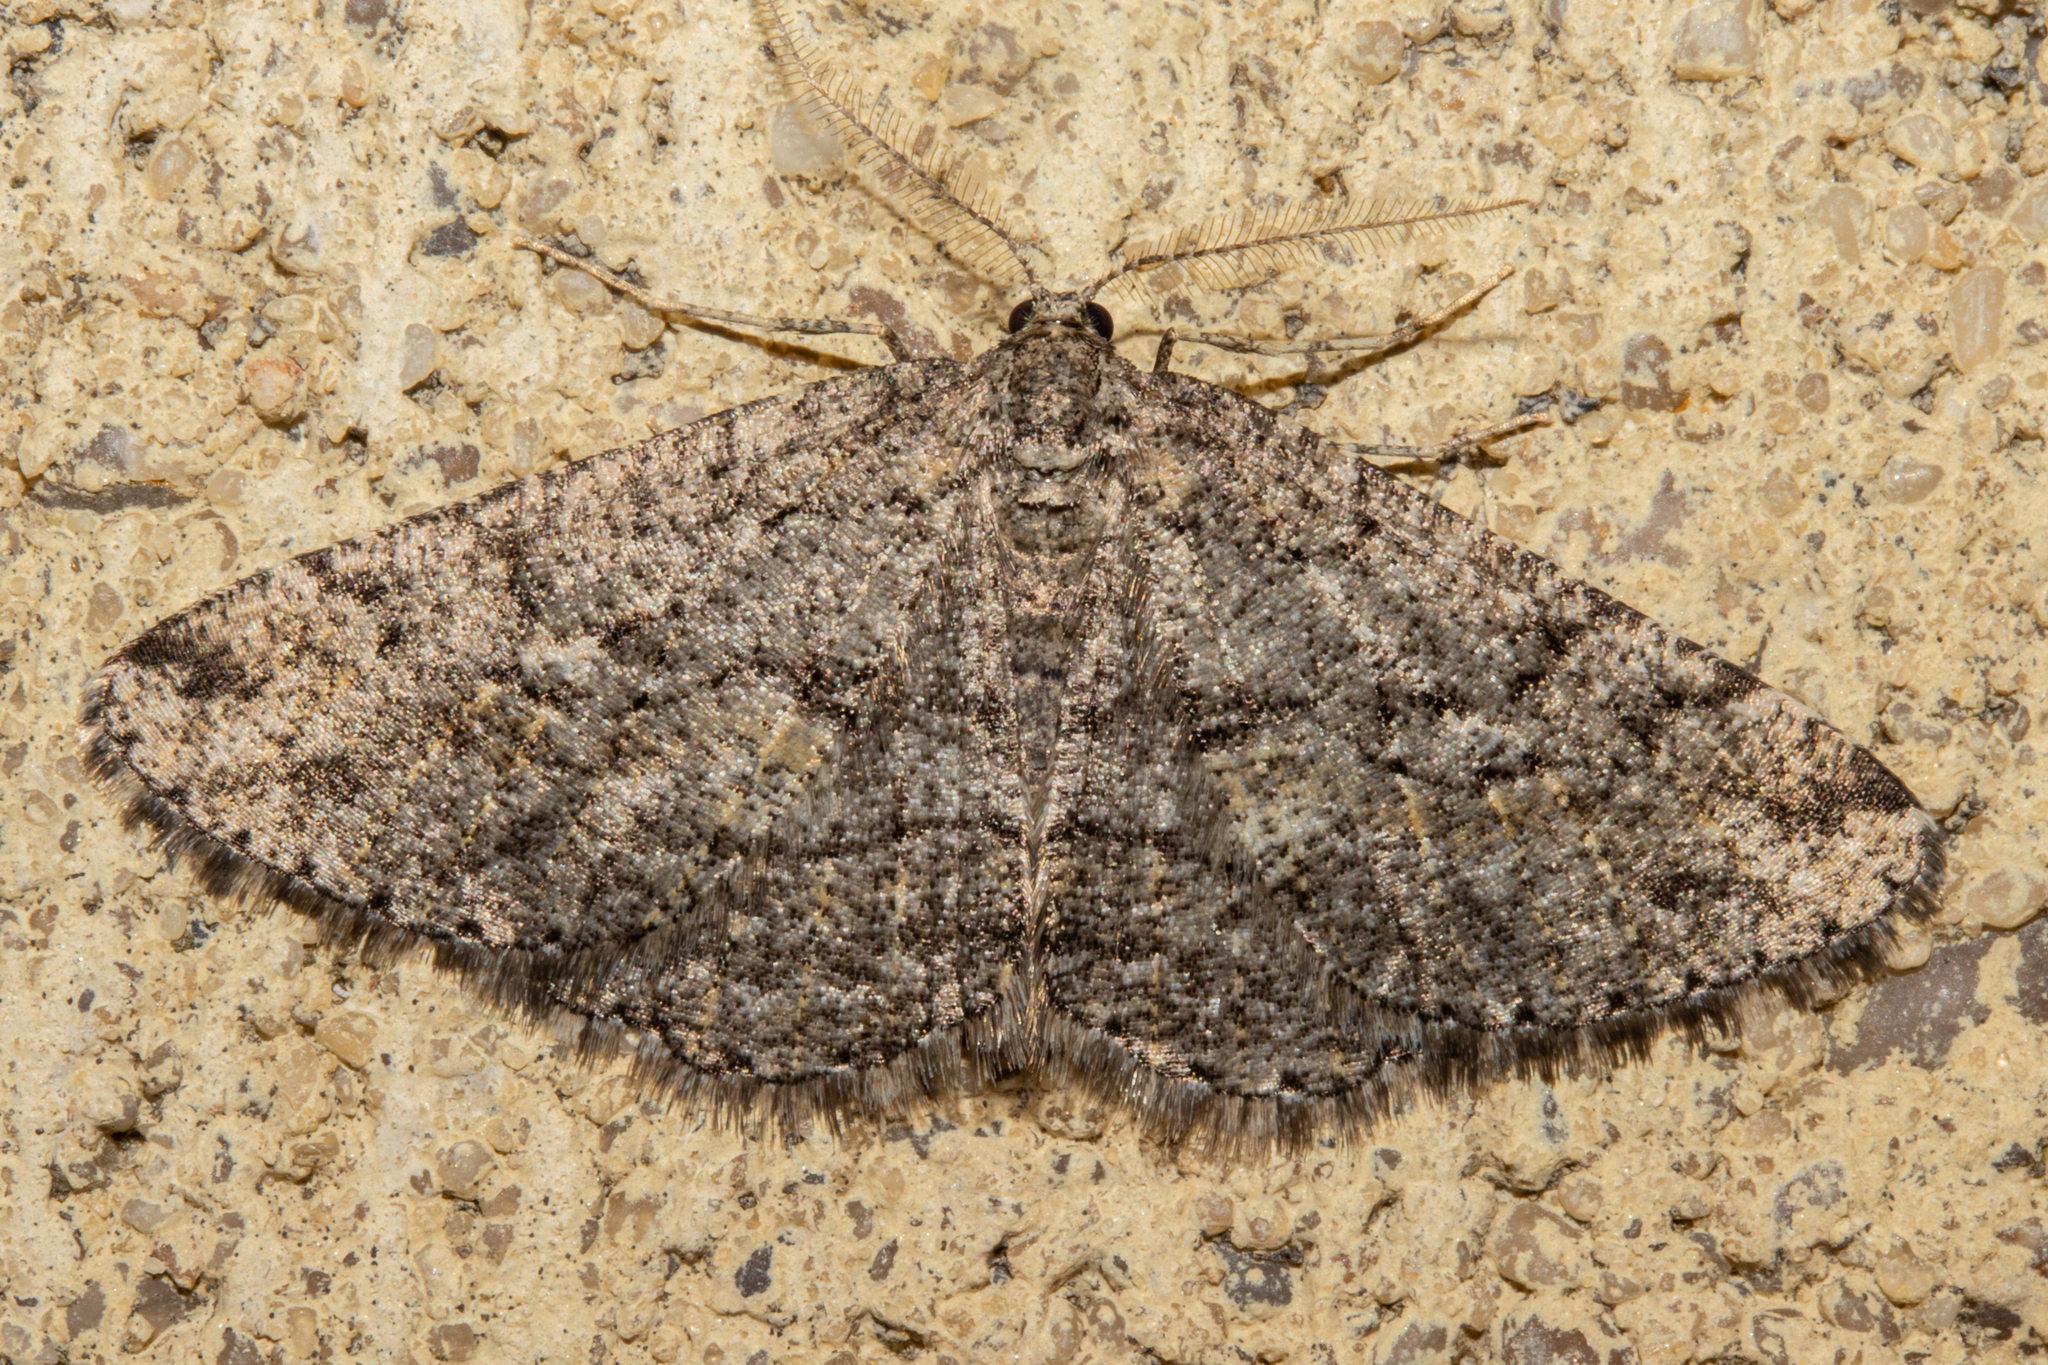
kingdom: Animalia
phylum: Arthropoda
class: Insecta
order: Lepidoptera
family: Geometridae
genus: Zermizinga
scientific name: Zermizinga indocilisaria
